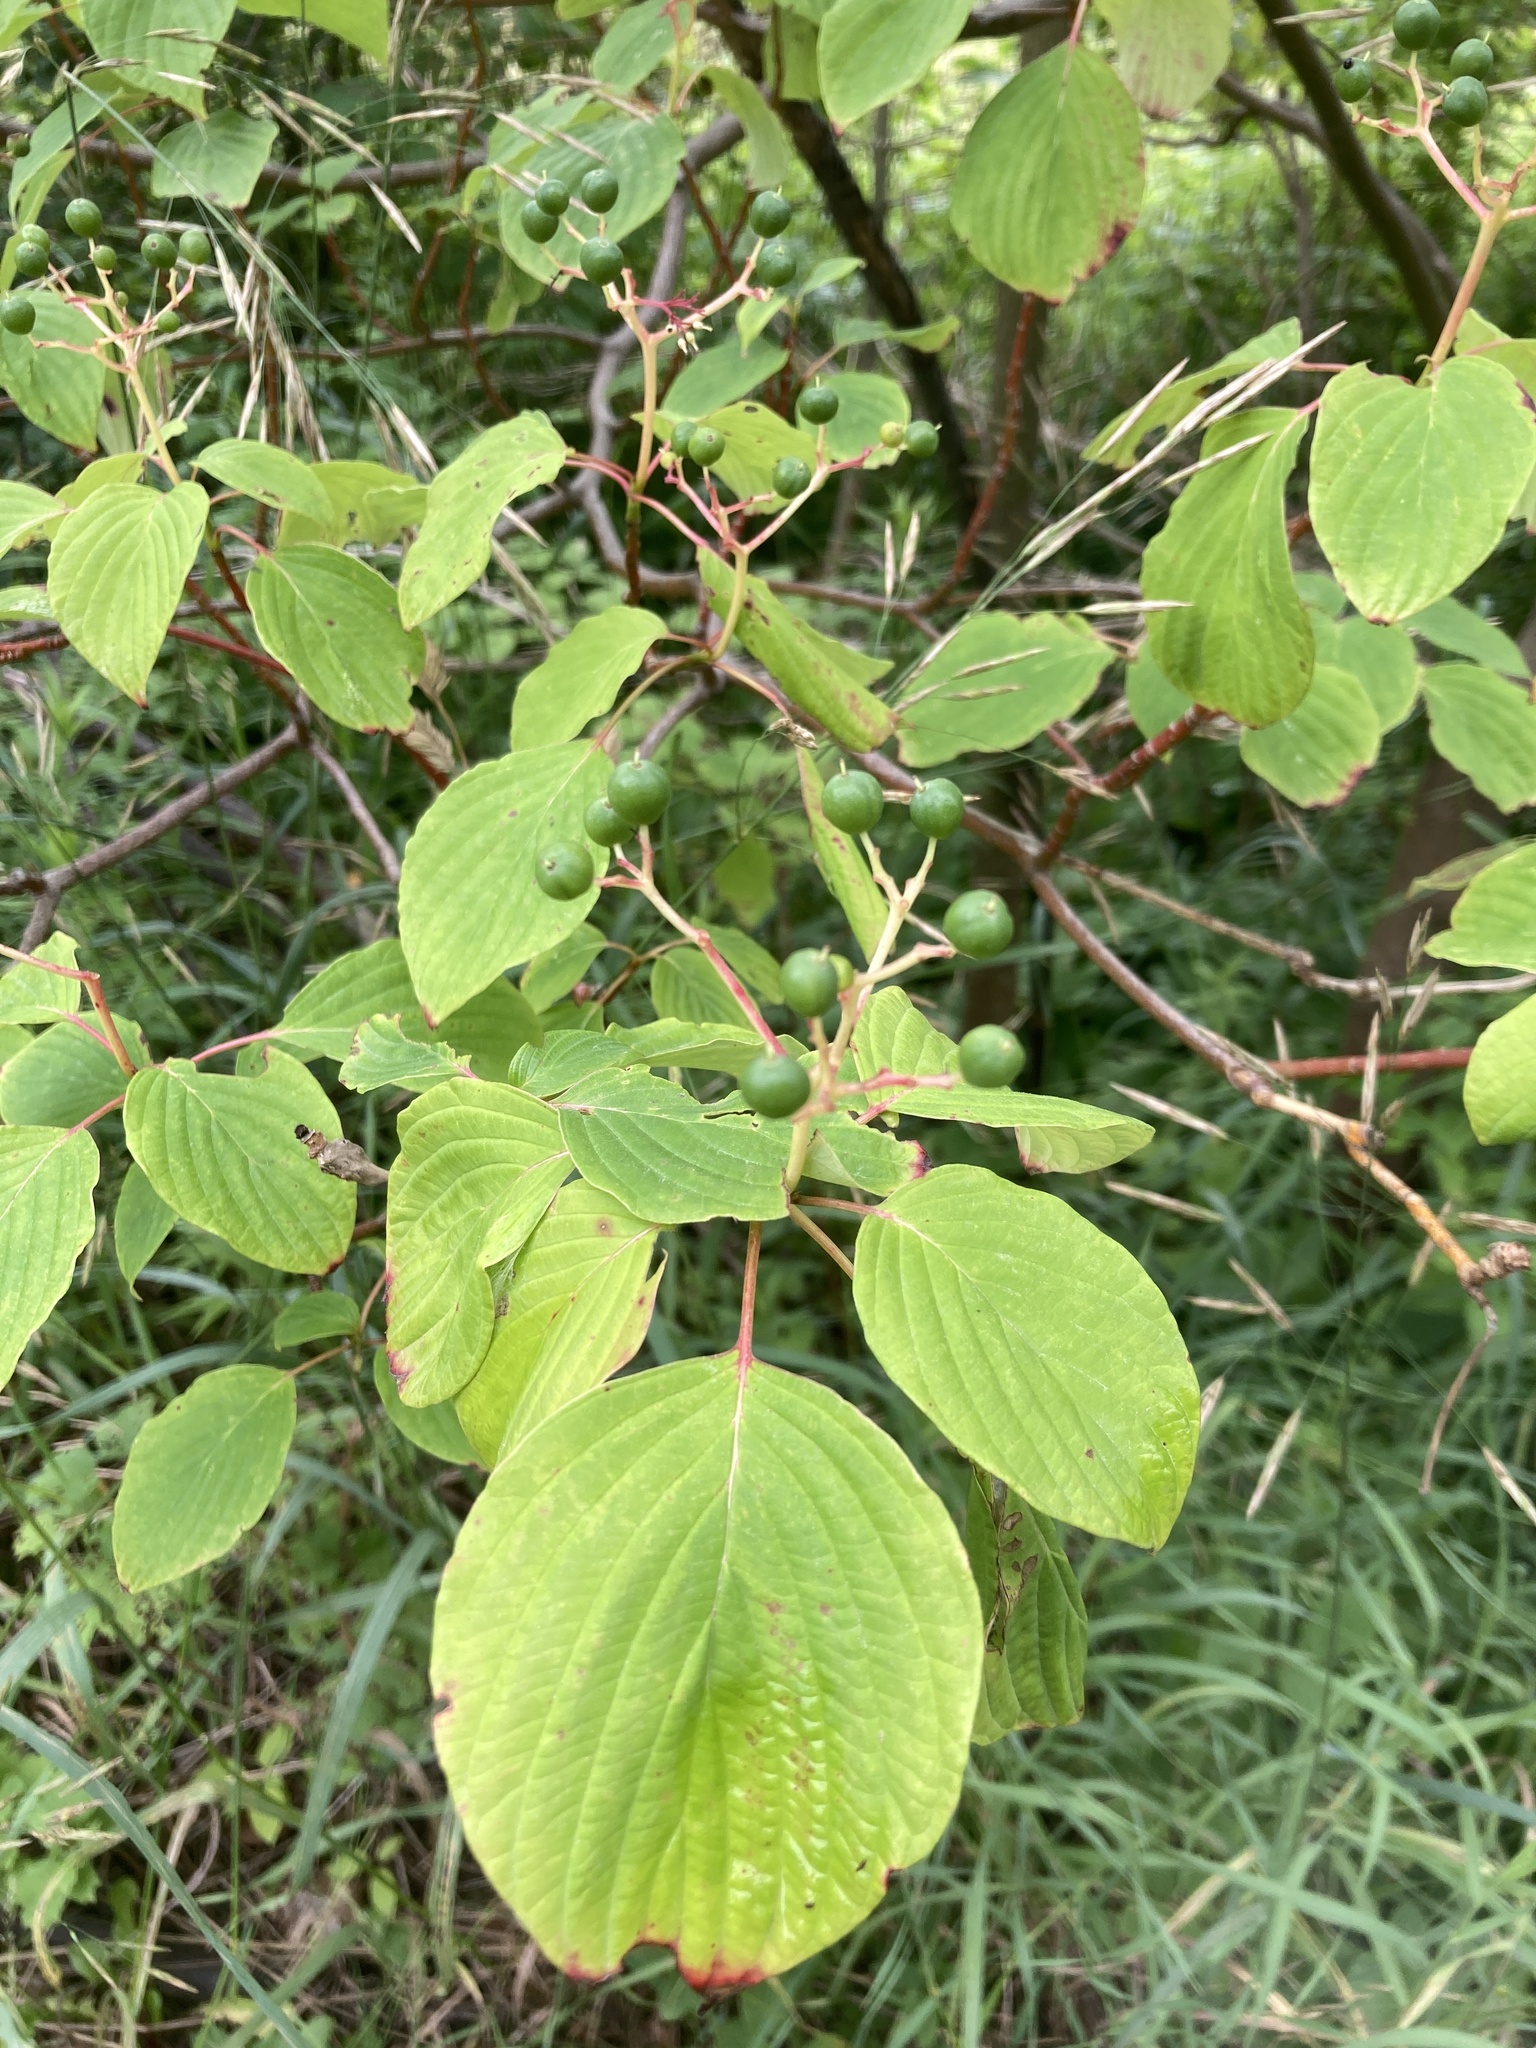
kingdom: Plantae
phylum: Tracheophyta
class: Magnoliopsida
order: Cornales
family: Cornaceae
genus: Cornus
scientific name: Cornus alternifolia
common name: Pagoda dogwood
